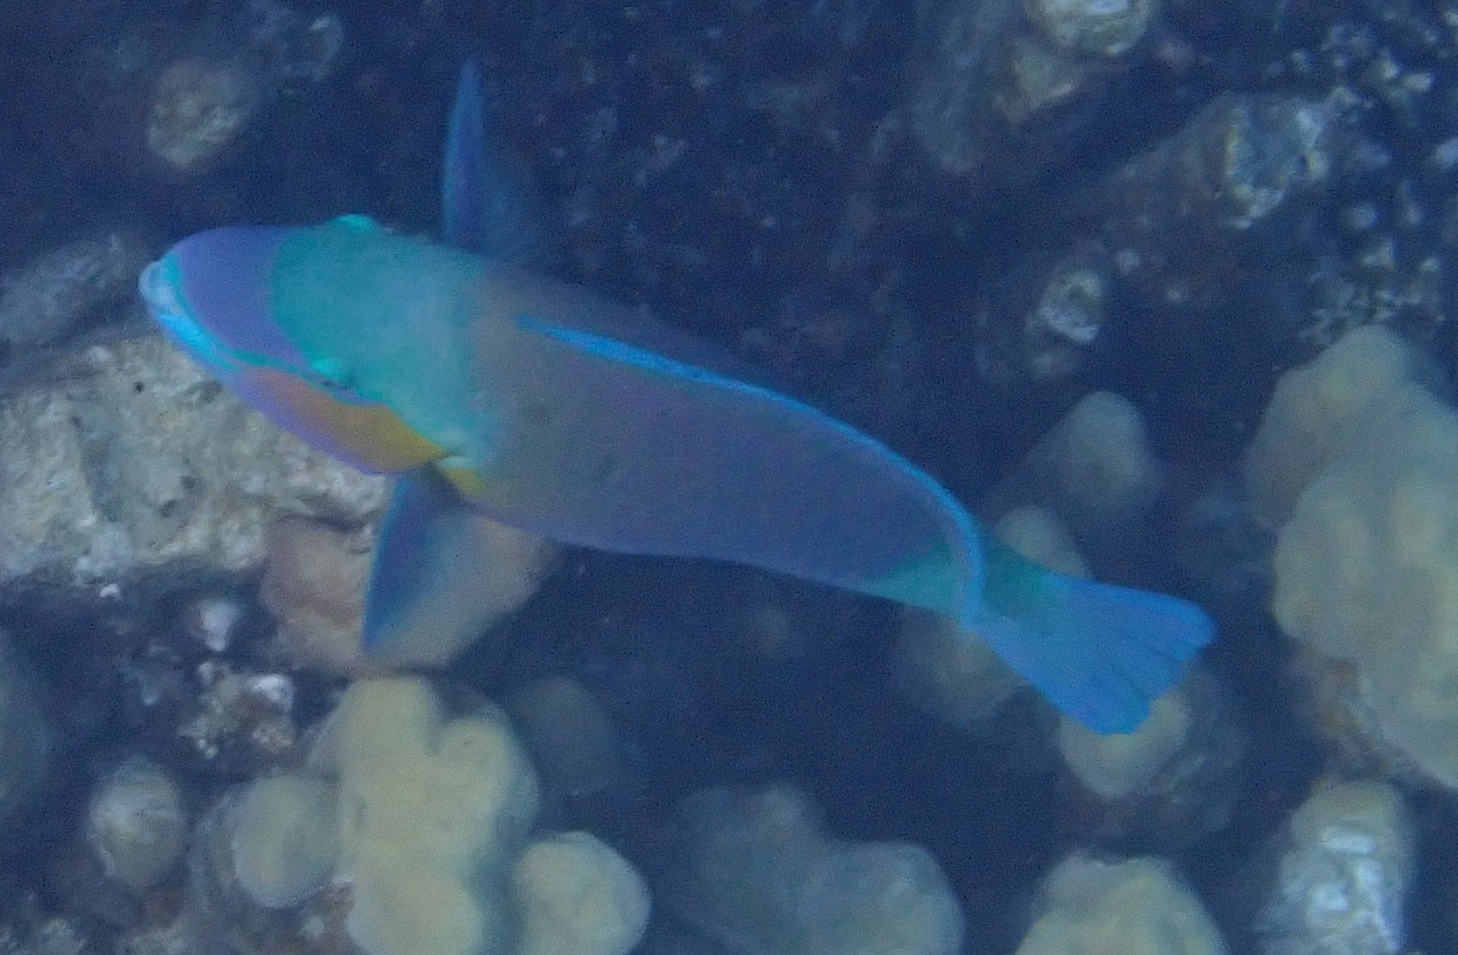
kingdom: Animalia
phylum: Chordata
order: Perciformes
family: Scaridae
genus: Chlorurus
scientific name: Chlorurus sordidus
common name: Bullethead parrotfish
